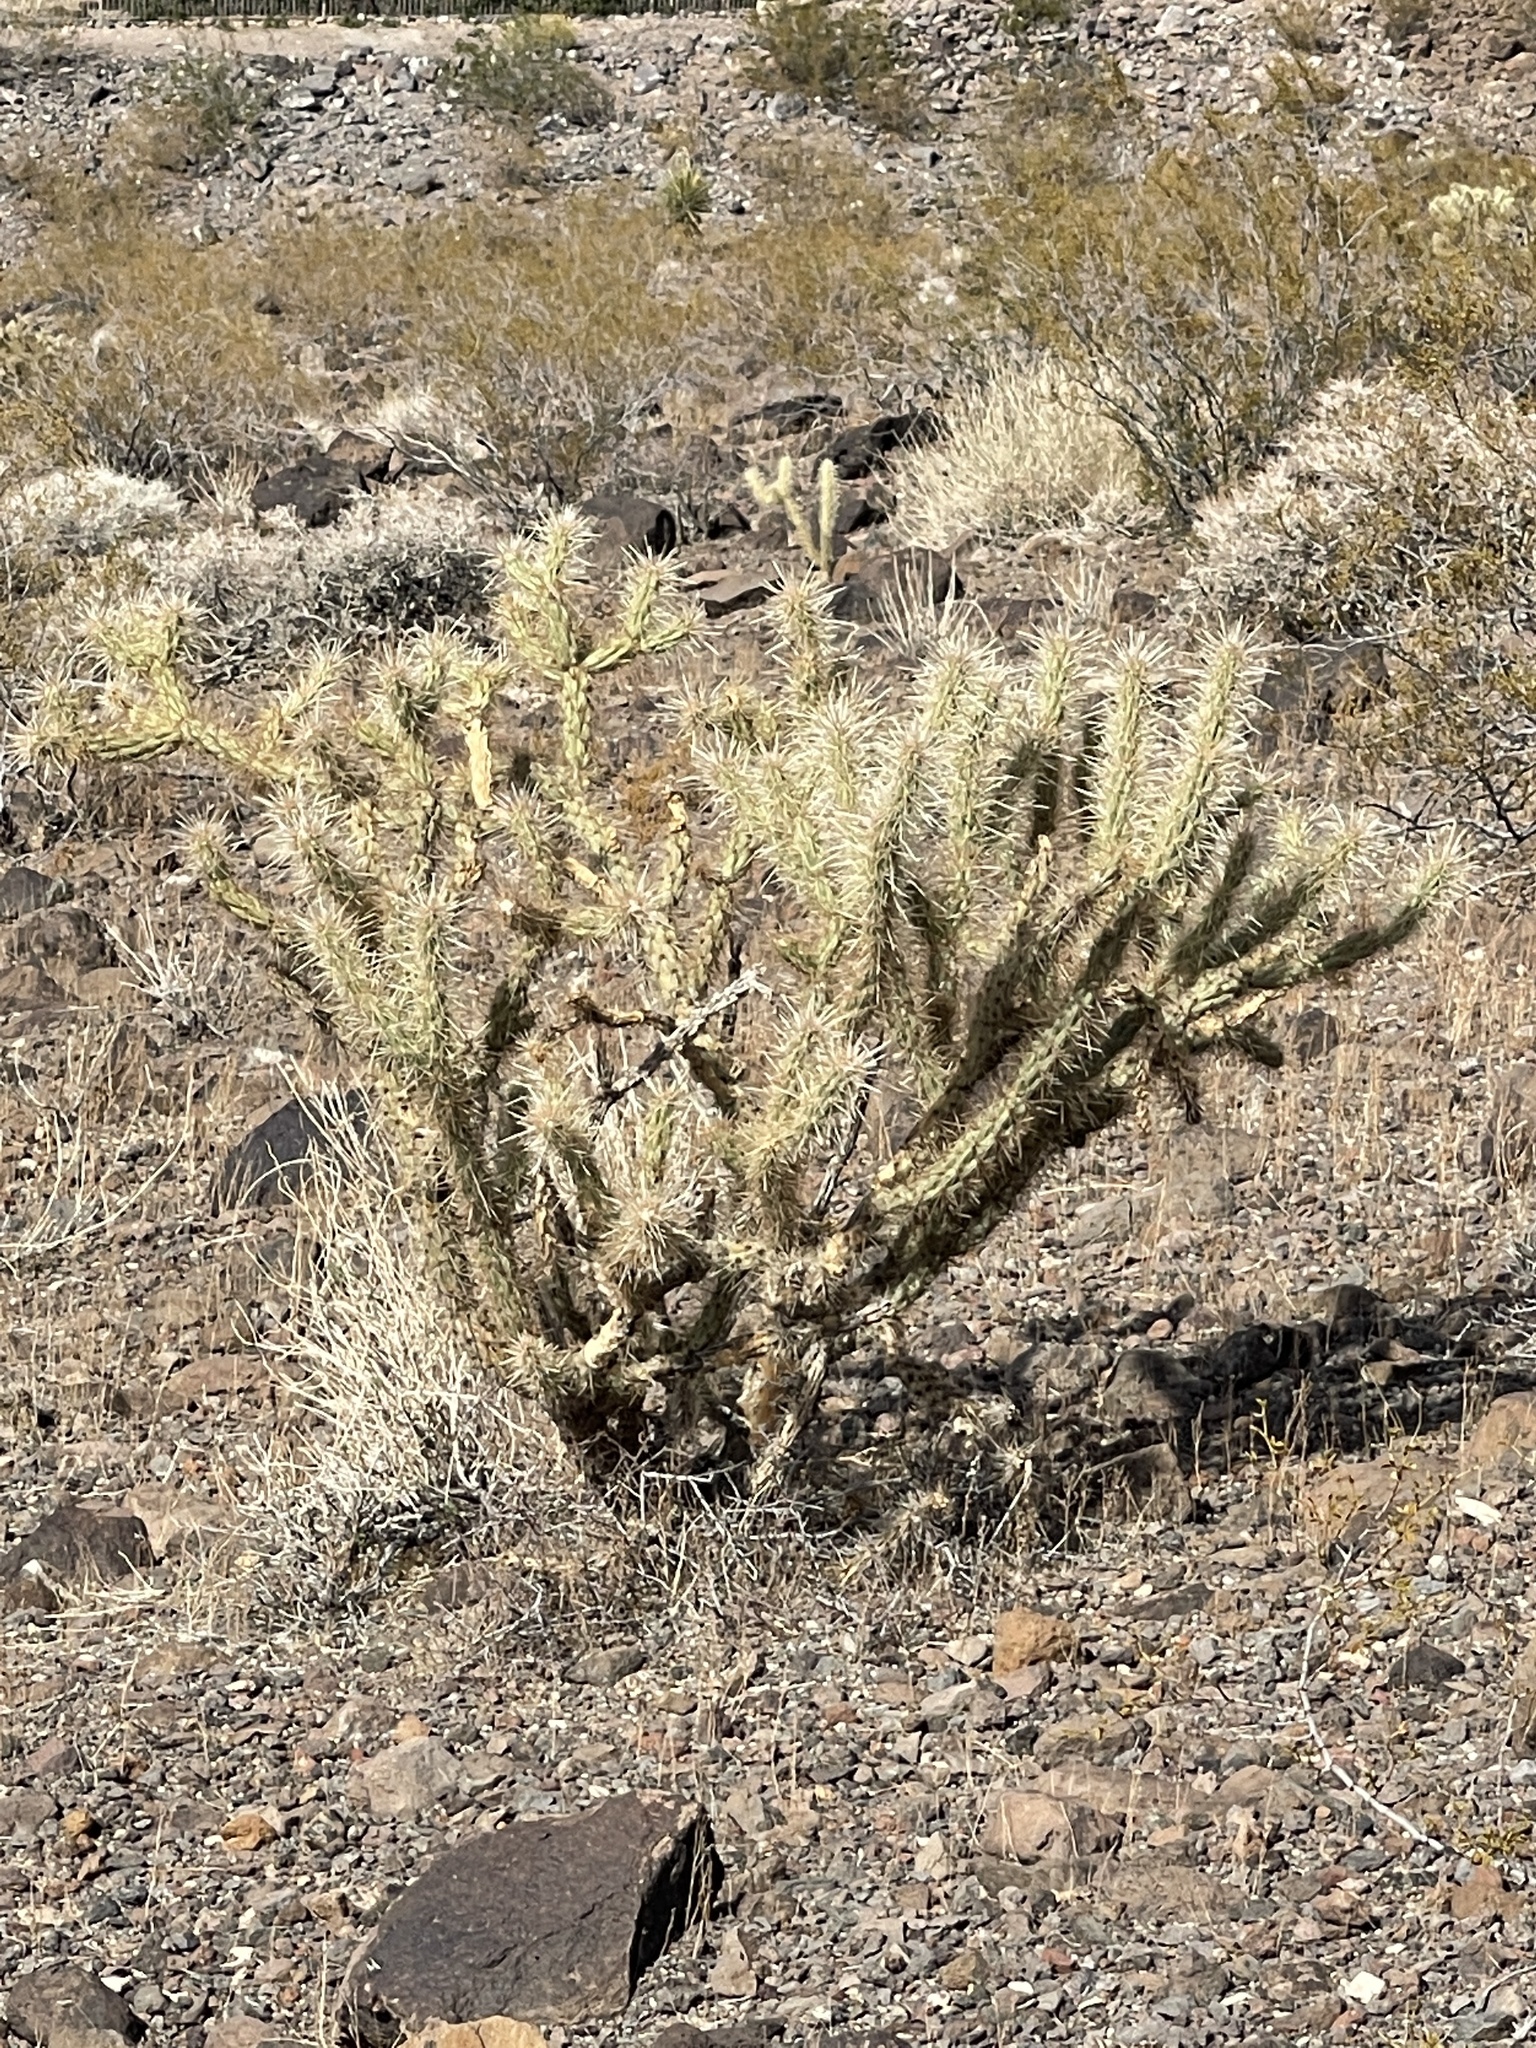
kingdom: Plantae
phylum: Tracheophyta
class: Magnoliopsida
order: Caryophyllales
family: Cactaceae
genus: Cylindropuntia
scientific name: Cylindropuntia acanthocarpa
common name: Buckhorn cholla
